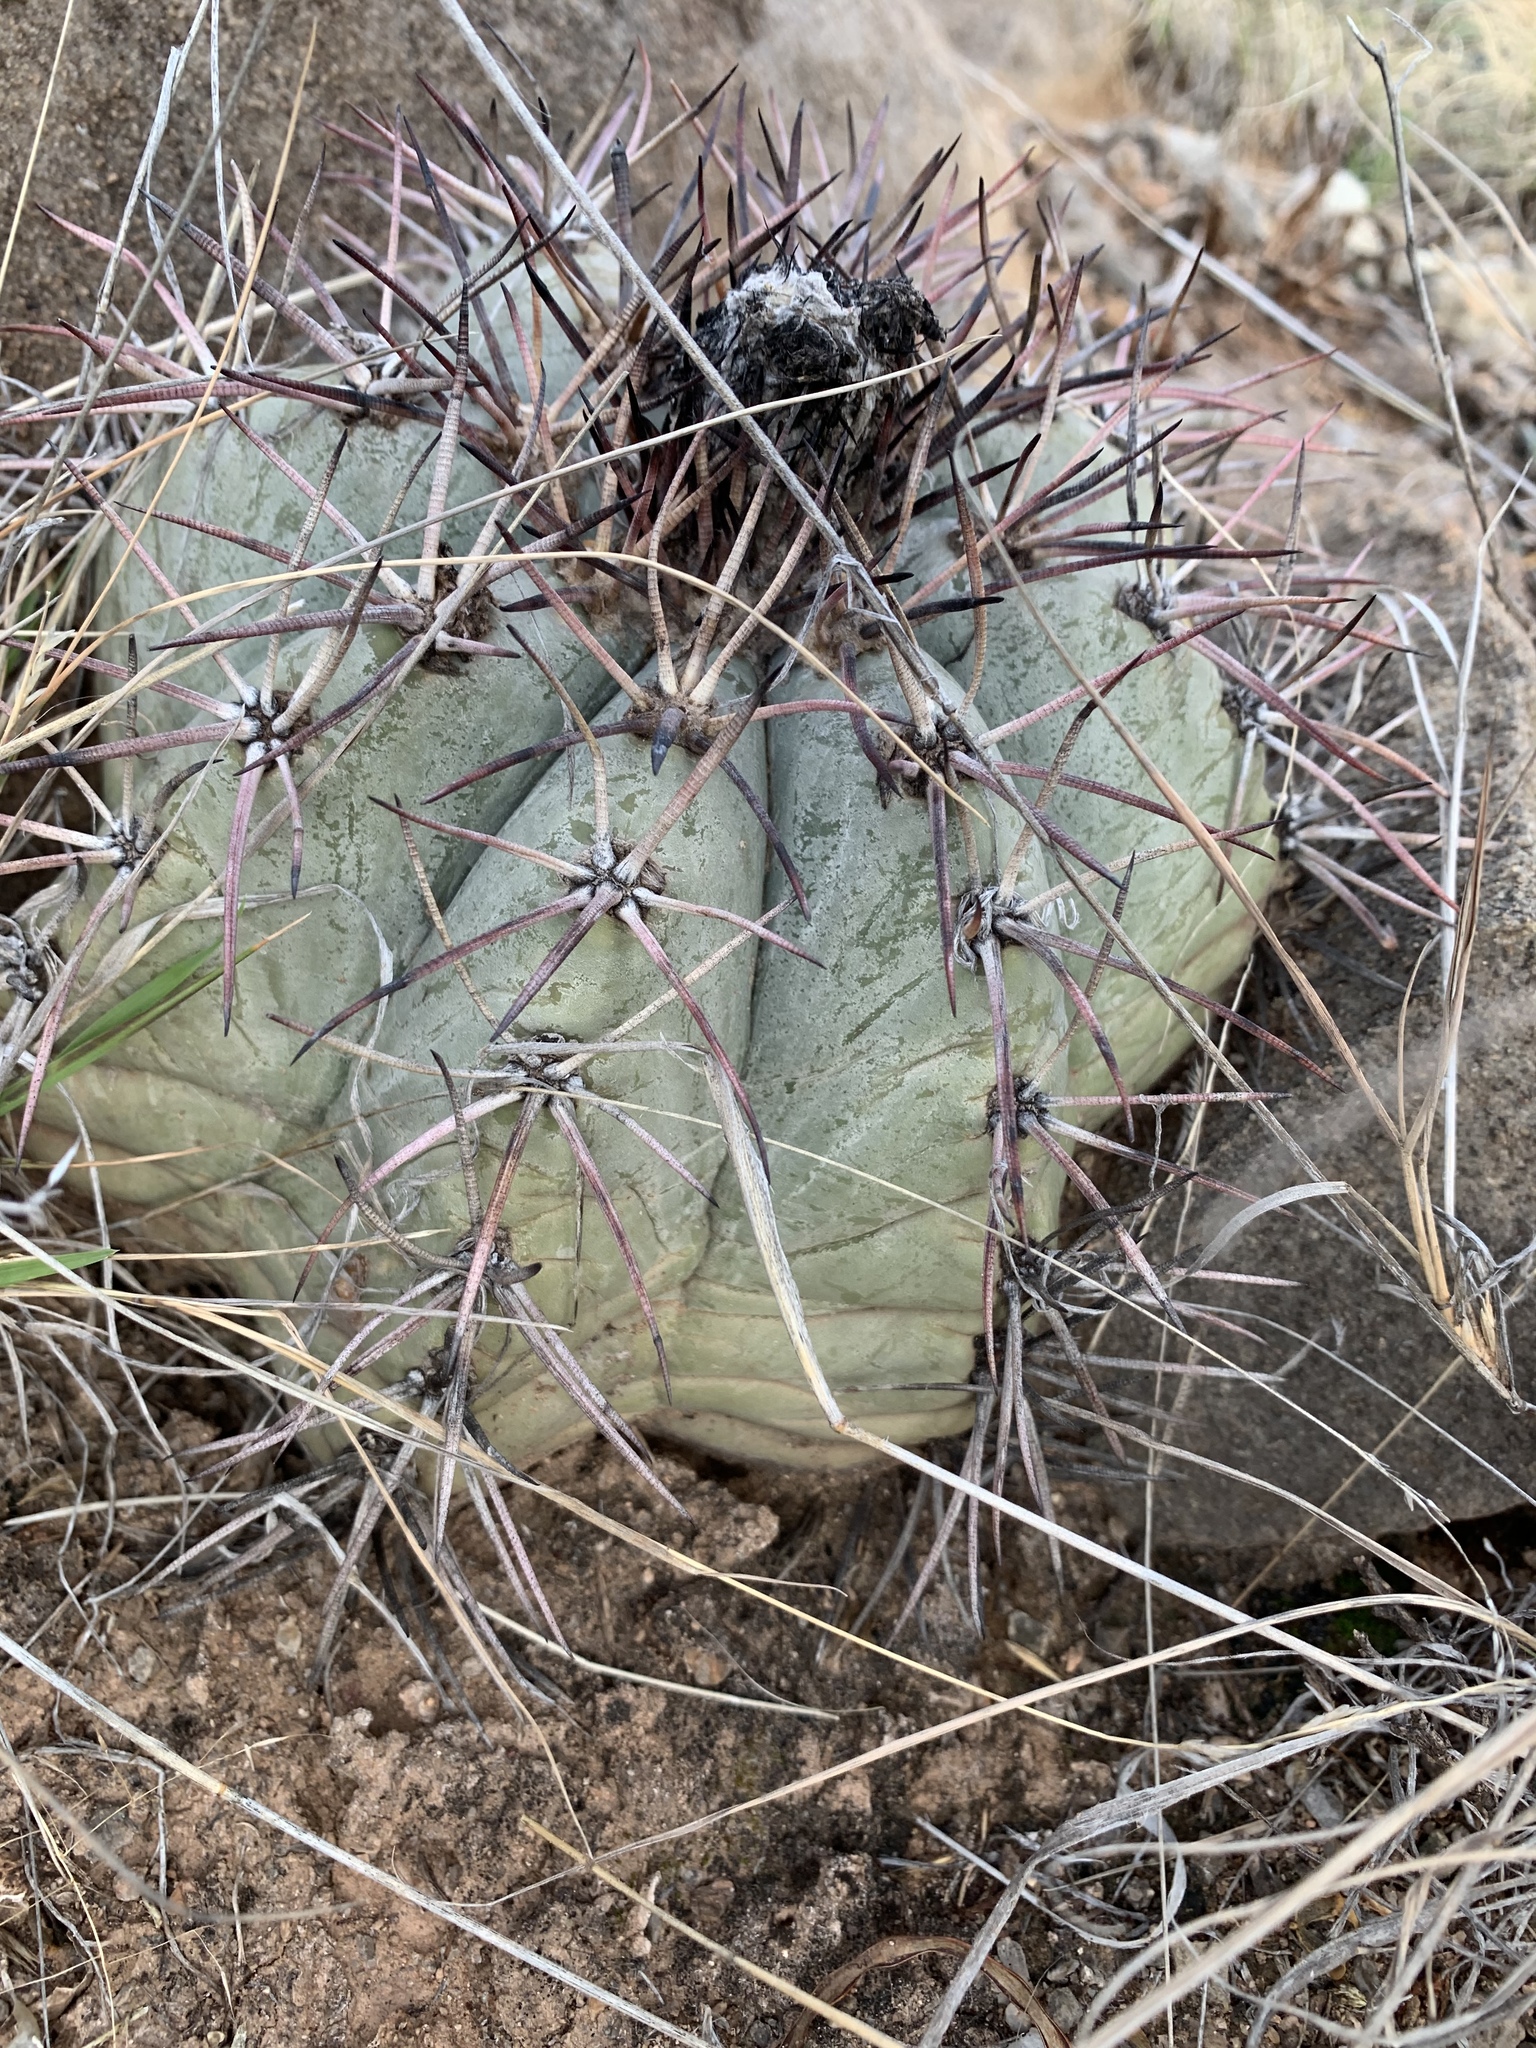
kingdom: Plantae
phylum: Tracheophyta
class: Magnoliopsida
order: Caryophyllales
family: Cactaceae
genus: Echinocactus
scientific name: Echinocactus horizonthalonius
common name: Devilshead
